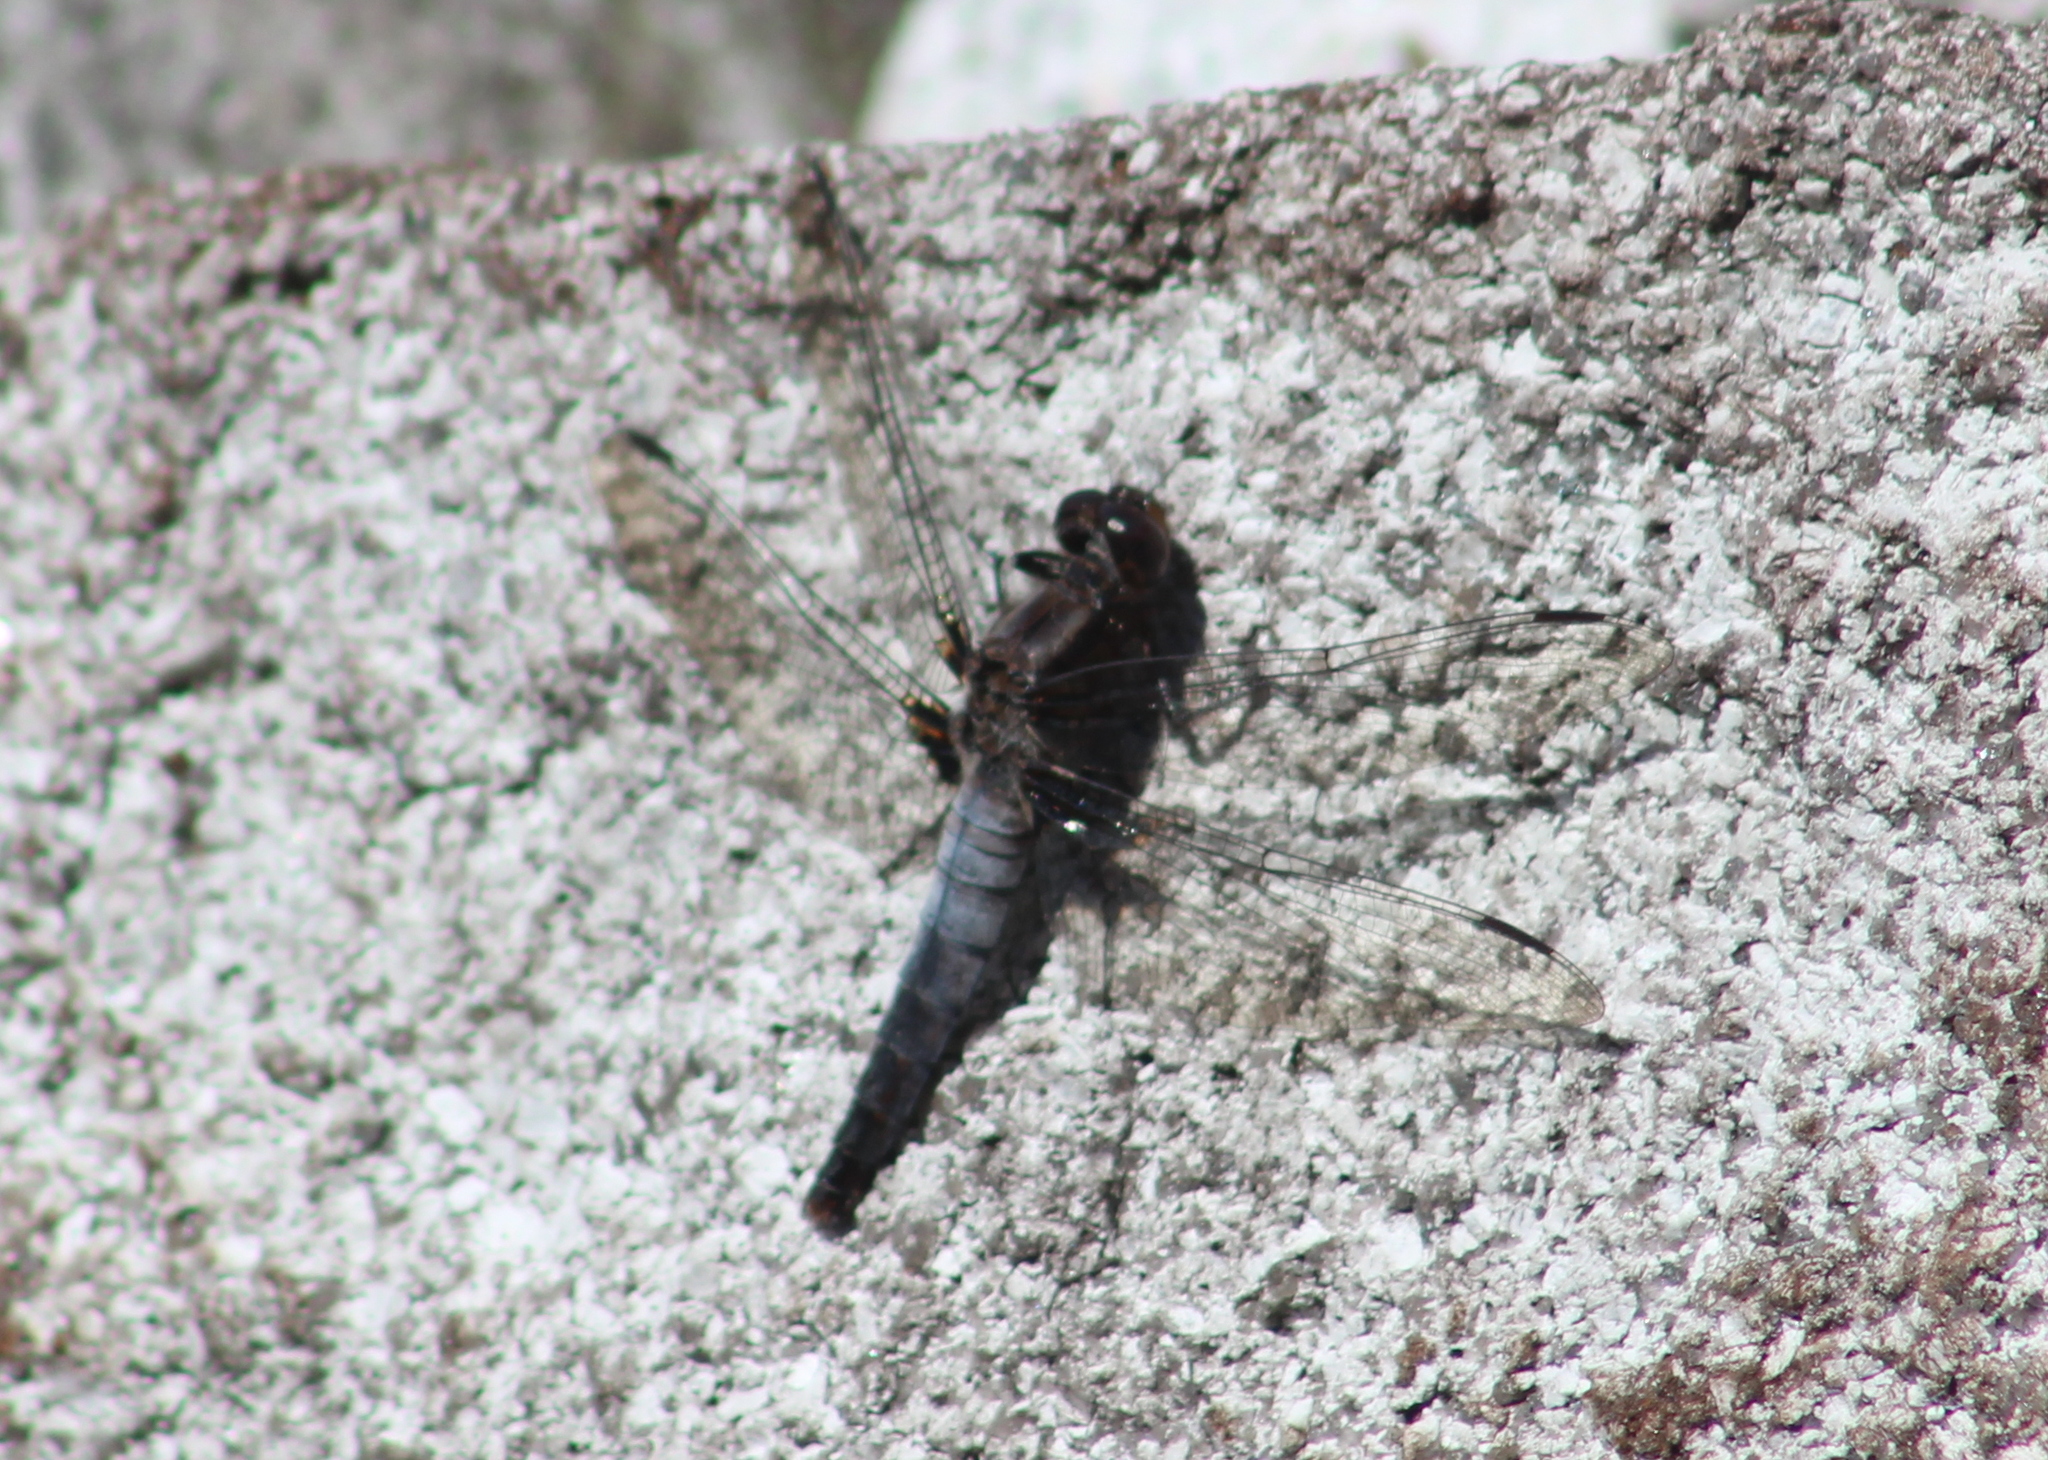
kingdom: Animalia
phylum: Arthropoda
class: Insecta
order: Odonata
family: Libellulidae
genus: Ladona
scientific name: Ladona julia
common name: Chalk-fronted corporal
